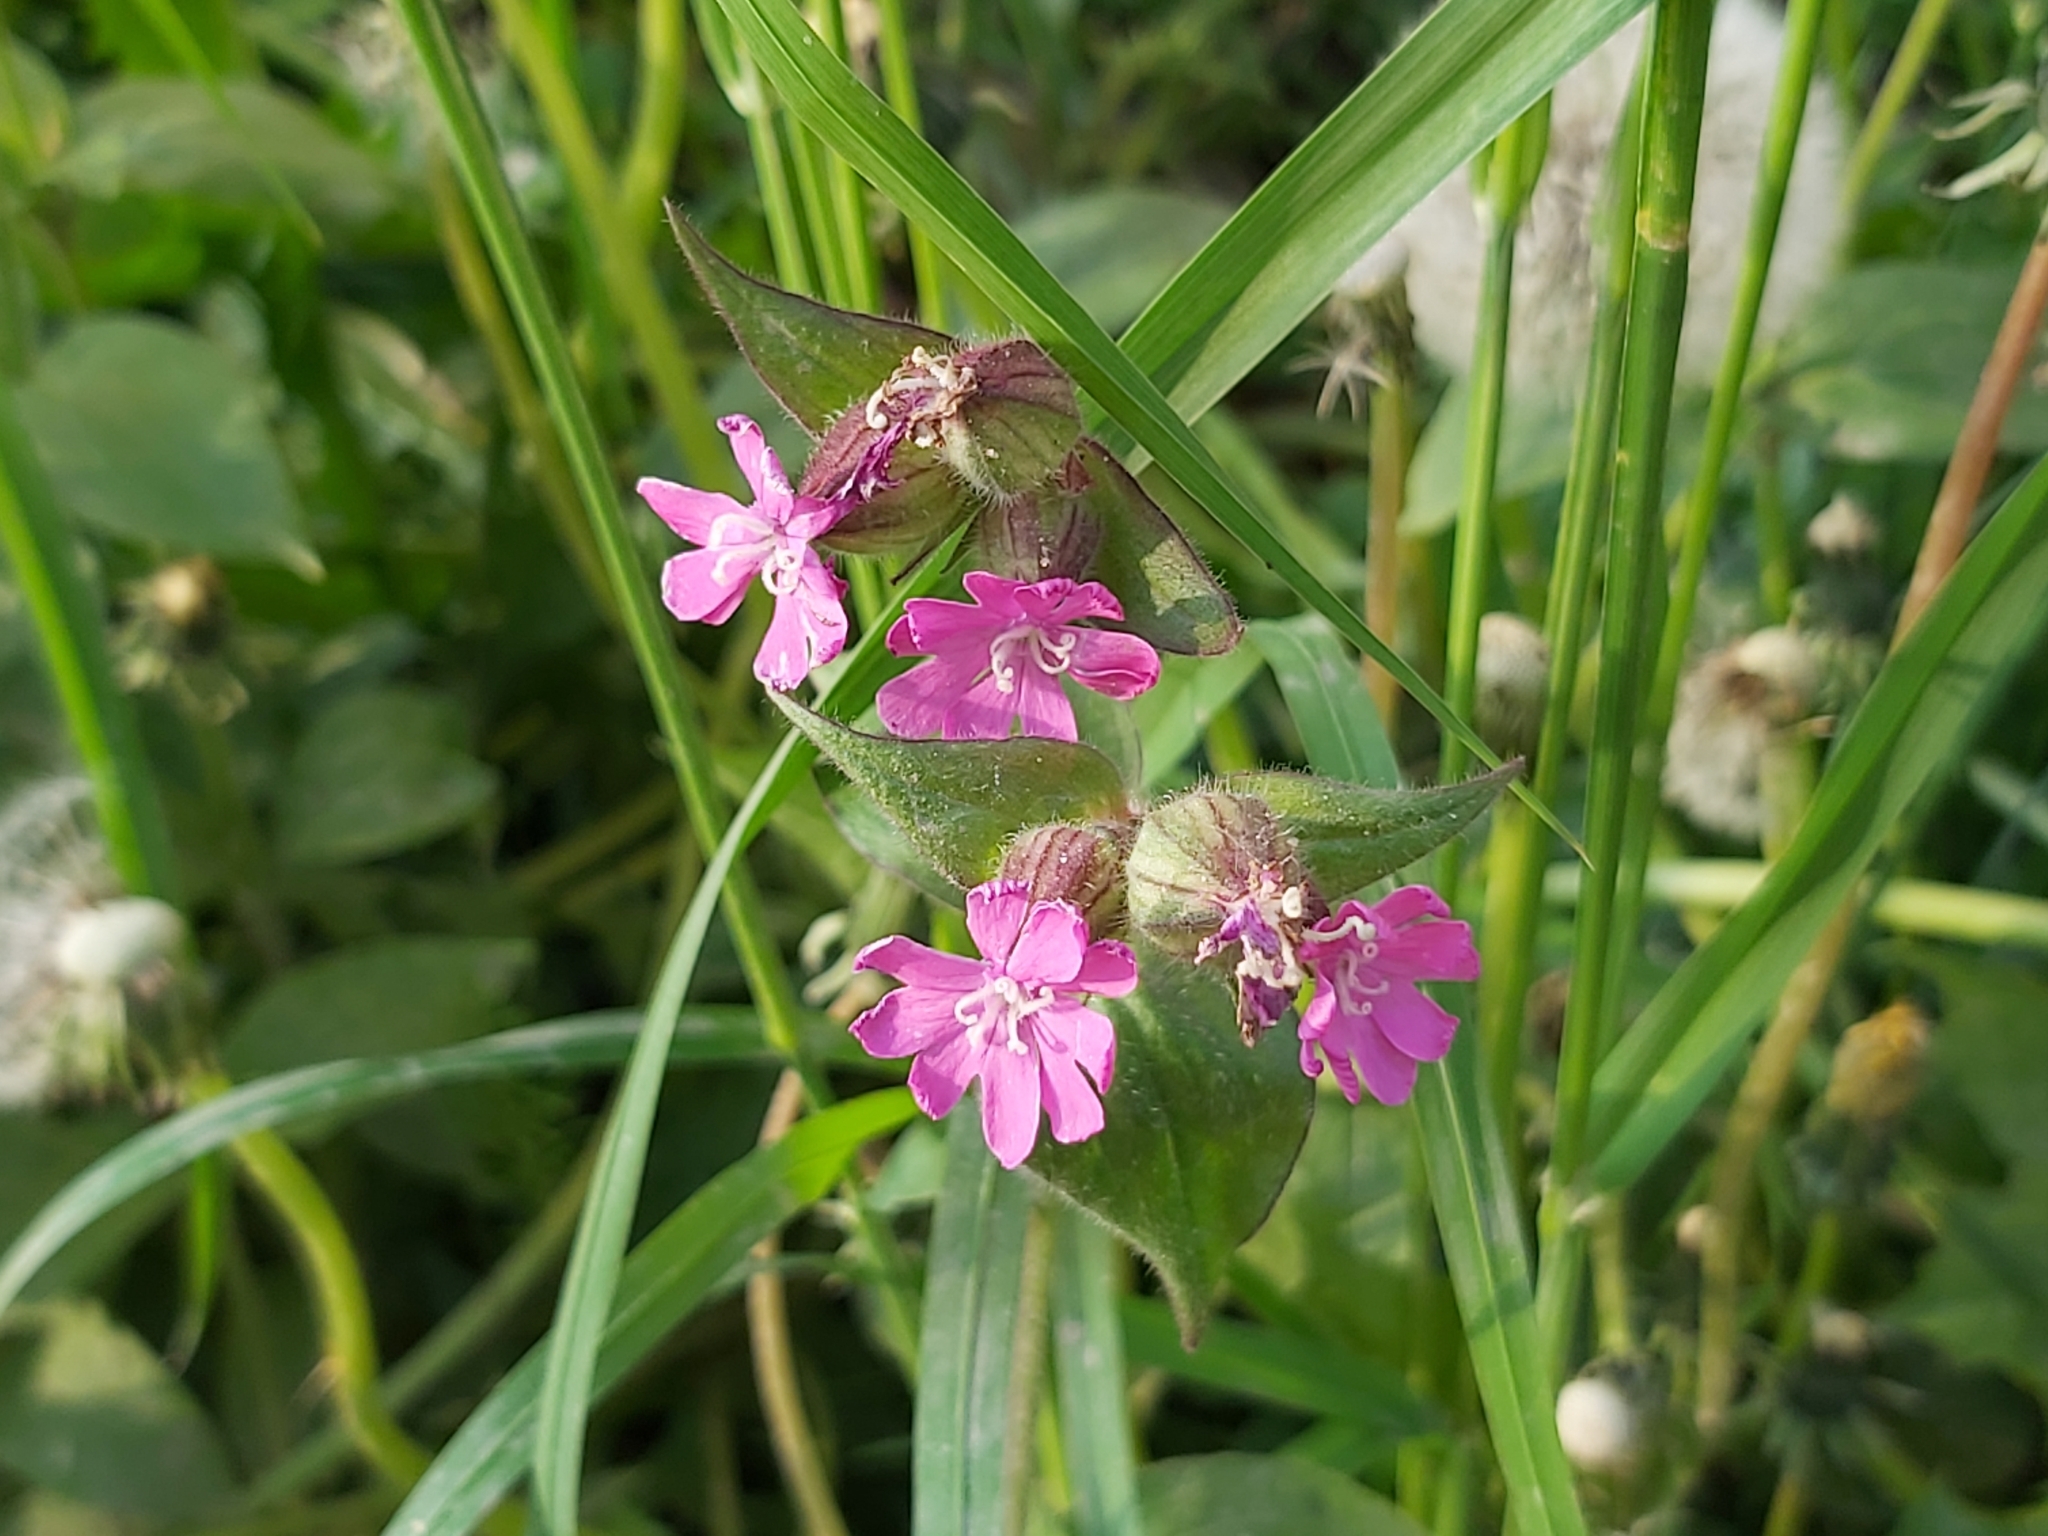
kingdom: Plantae
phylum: Tracheophyta
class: Magnoliopsida
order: Caryophyllales
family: Caryophyllaceae
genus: Silene
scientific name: Silene dioica
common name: Red campion
